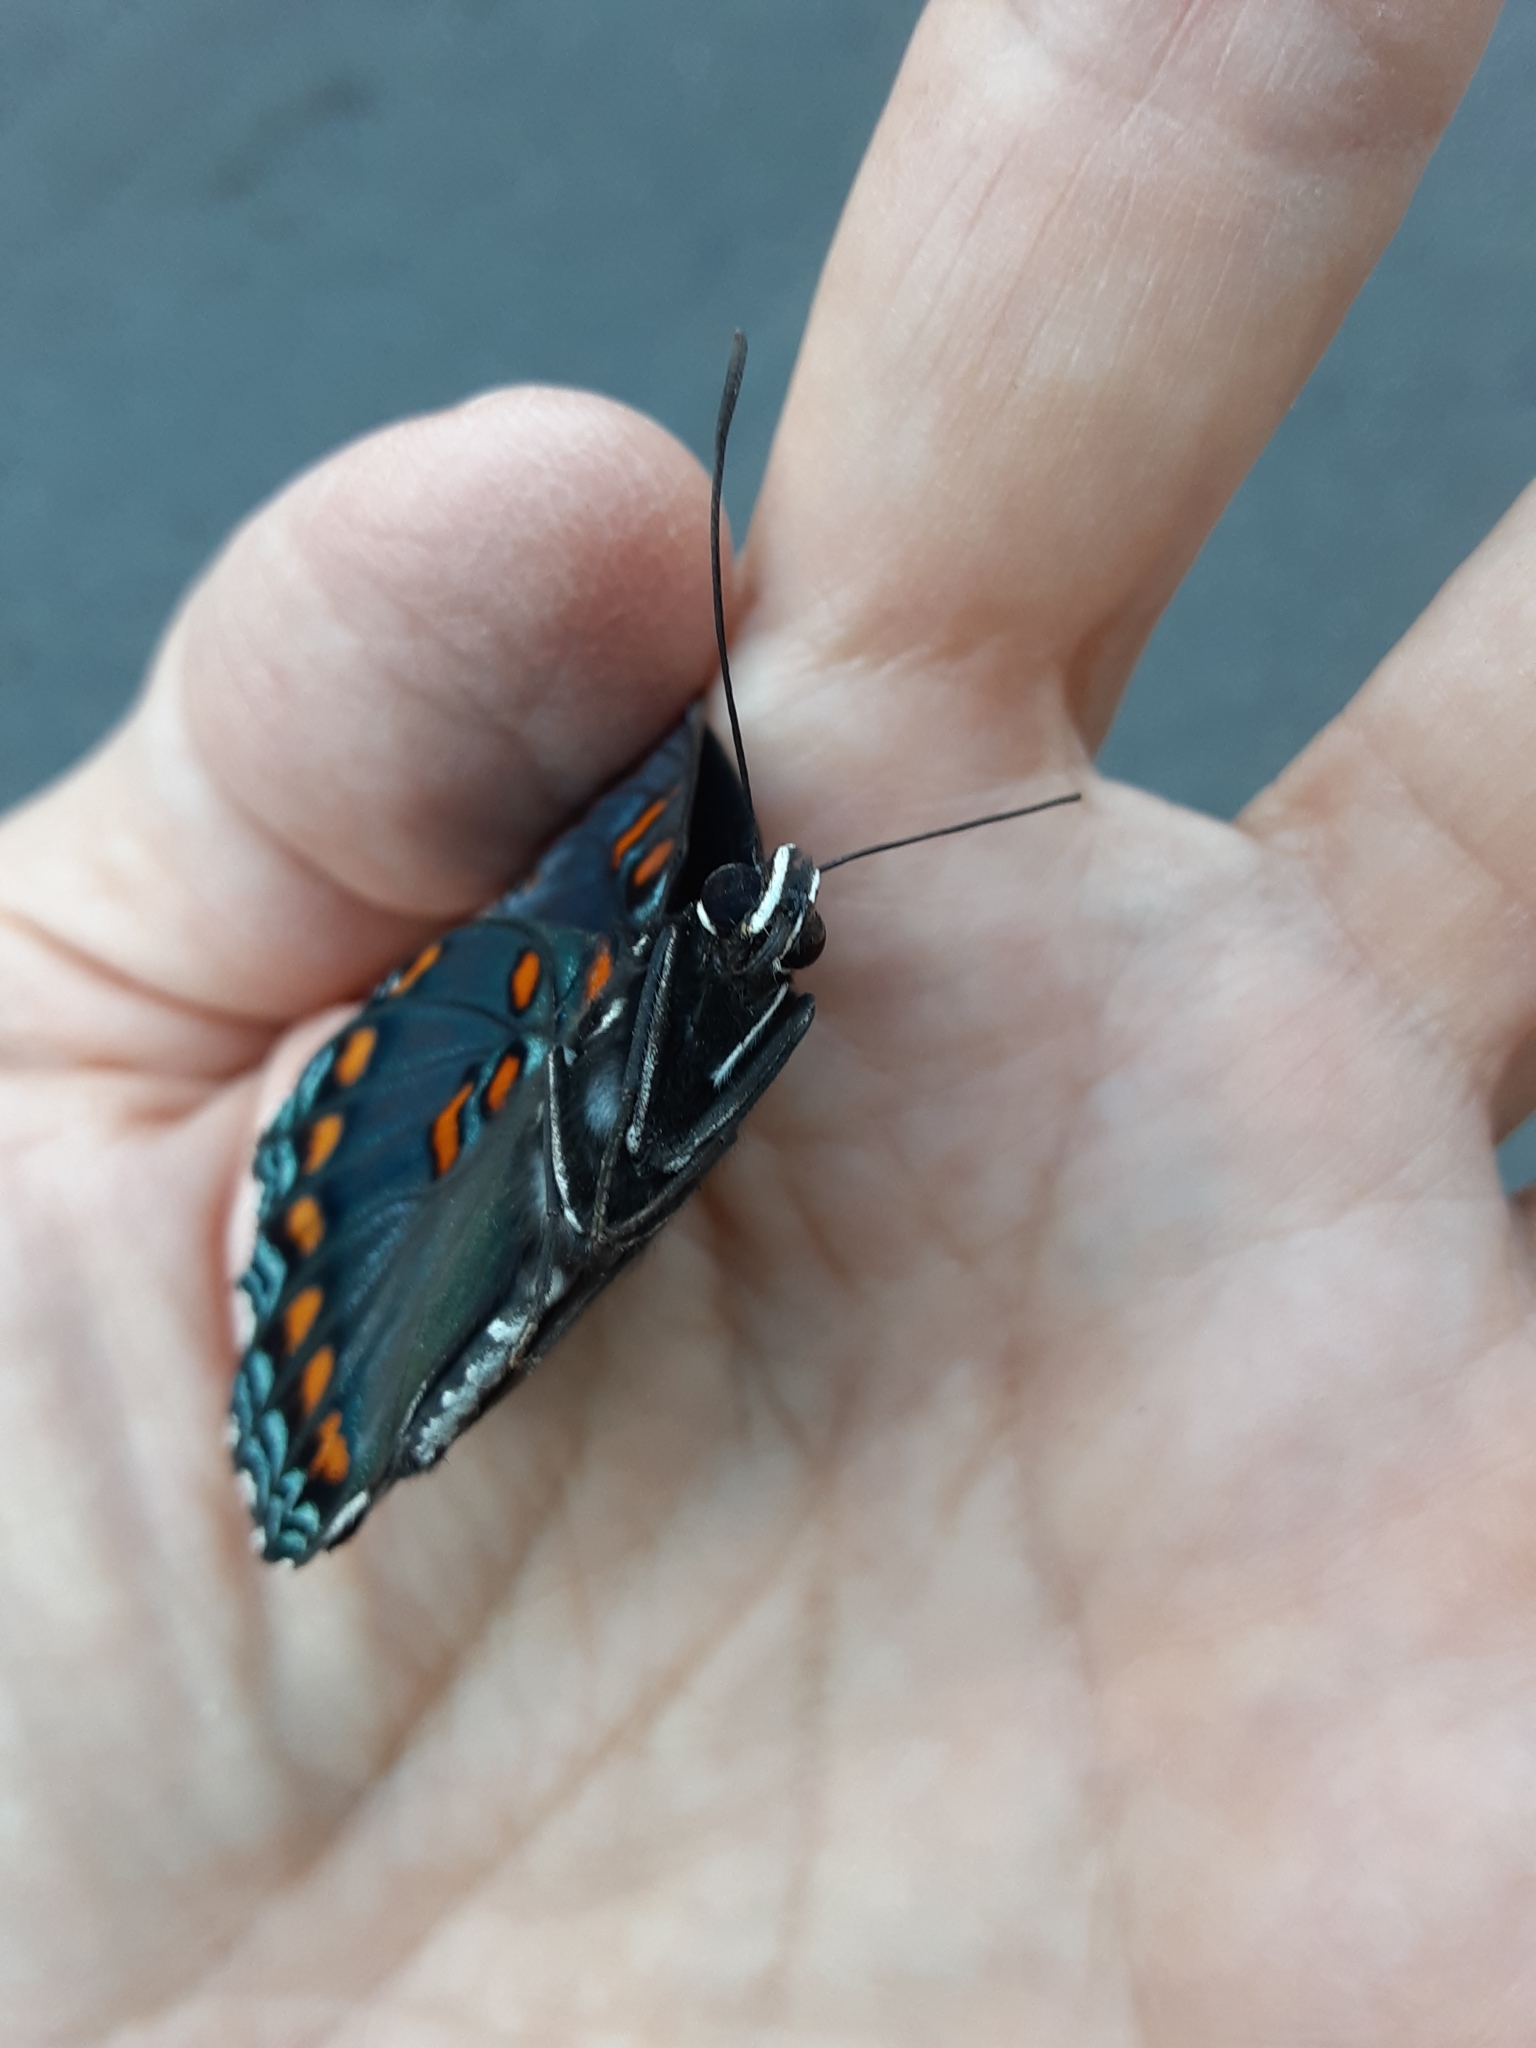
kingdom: Animalia
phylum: Arthropoda
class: Insecta
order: Lepidoptera
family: Nymphalidae
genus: Limenitis
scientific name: Limenitis astyanax
